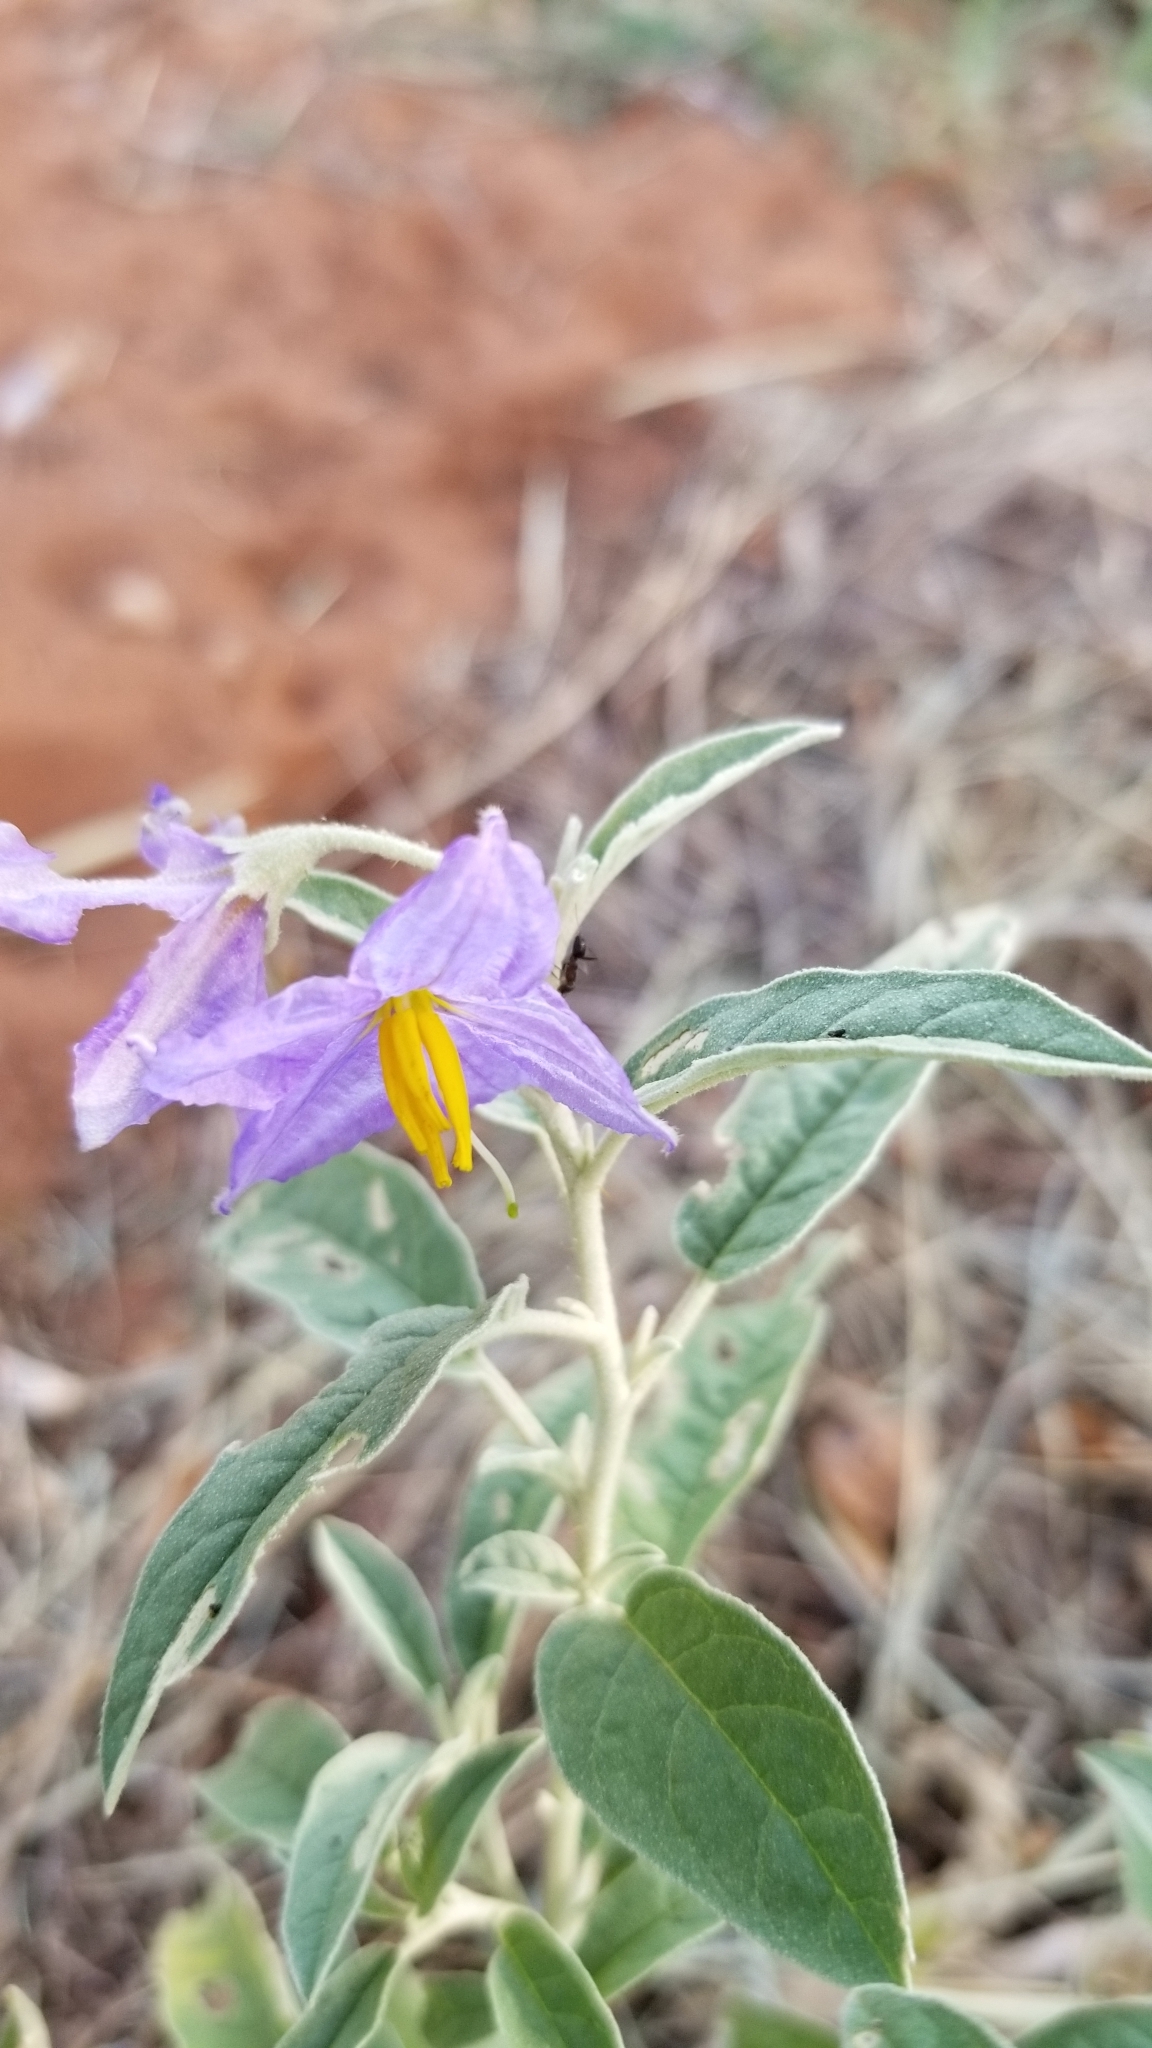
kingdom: Plantae
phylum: Tracheophyta
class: Magnoliopsida
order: Solanales
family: Solanaceae
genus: Solanum
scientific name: Solanum elaeagnifolium
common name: Silverleaf nightshade
